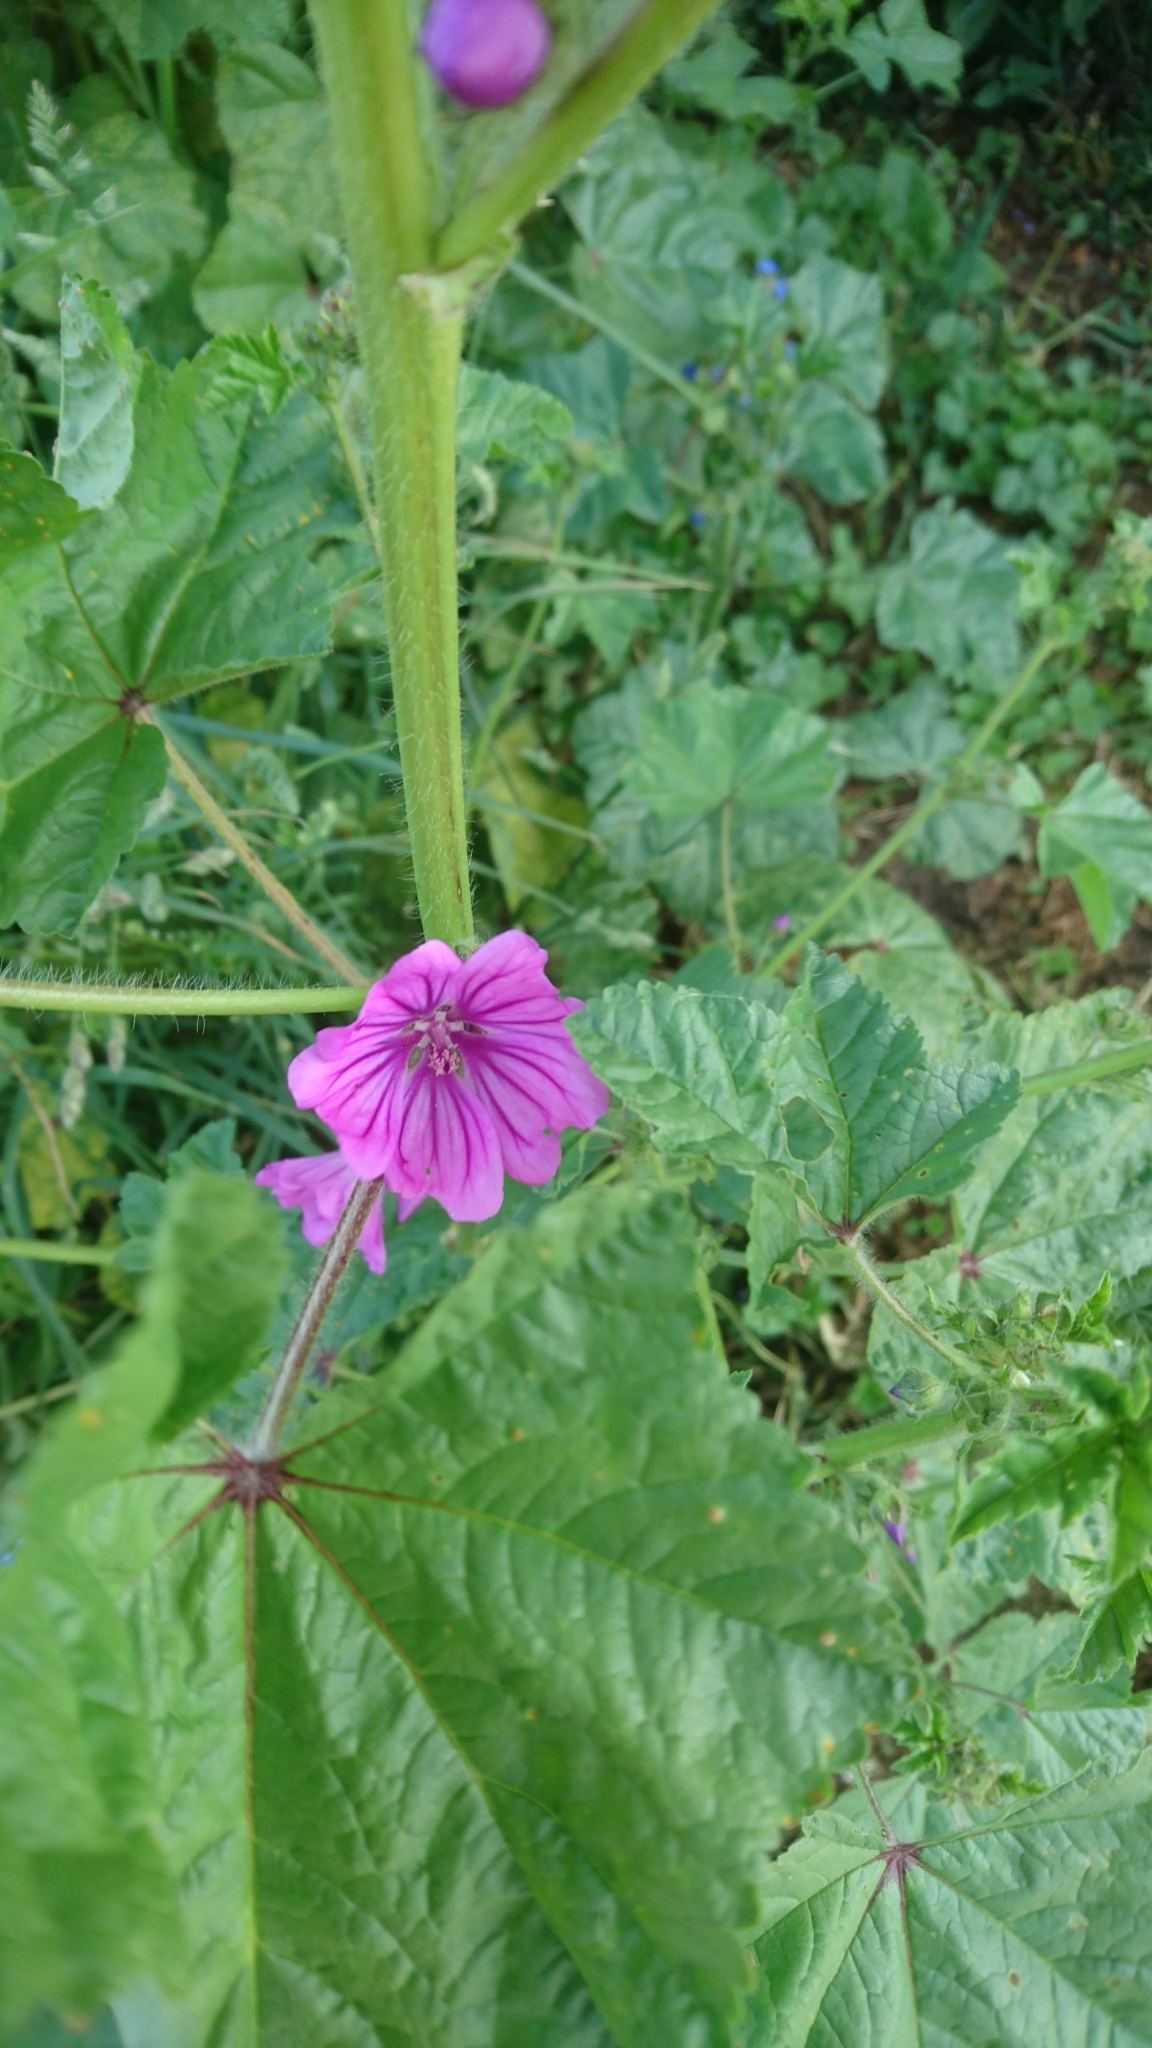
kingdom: Plantae
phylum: Tracheophyta
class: Magnoliopsida
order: Malvales
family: Malvaceae
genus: Malva
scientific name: Malva sylvestris
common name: Common mallow
